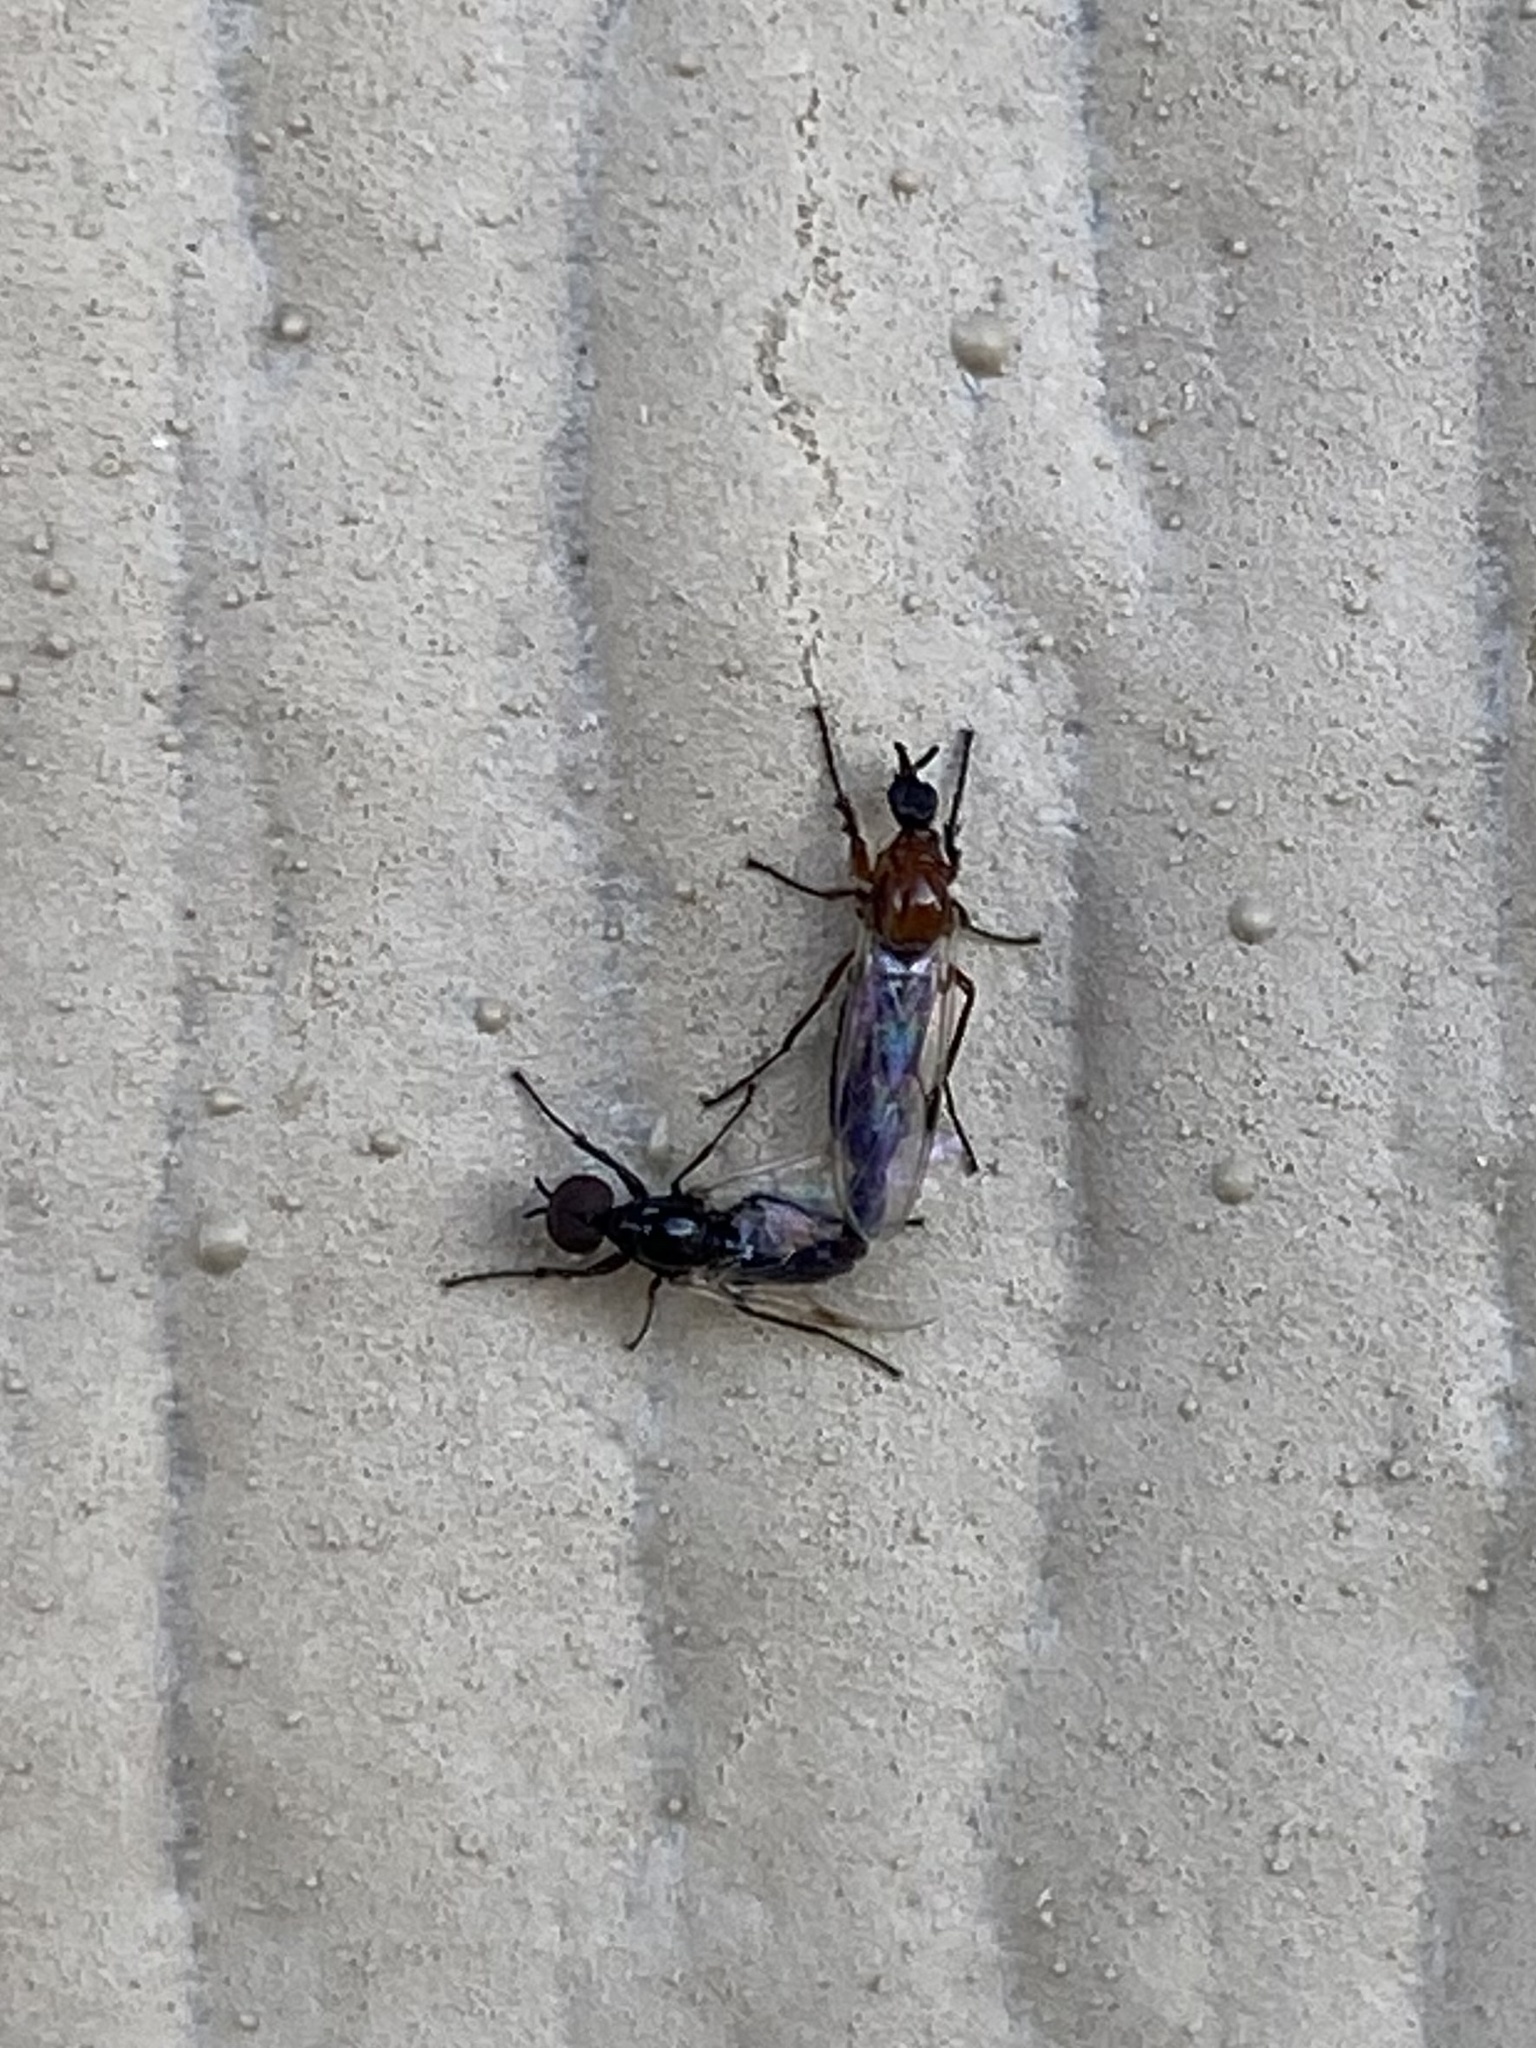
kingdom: Animalia
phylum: Arthropoda
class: Insecta
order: Diptera
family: Bibionidae
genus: Dilophus
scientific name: Dilophus tibialis
